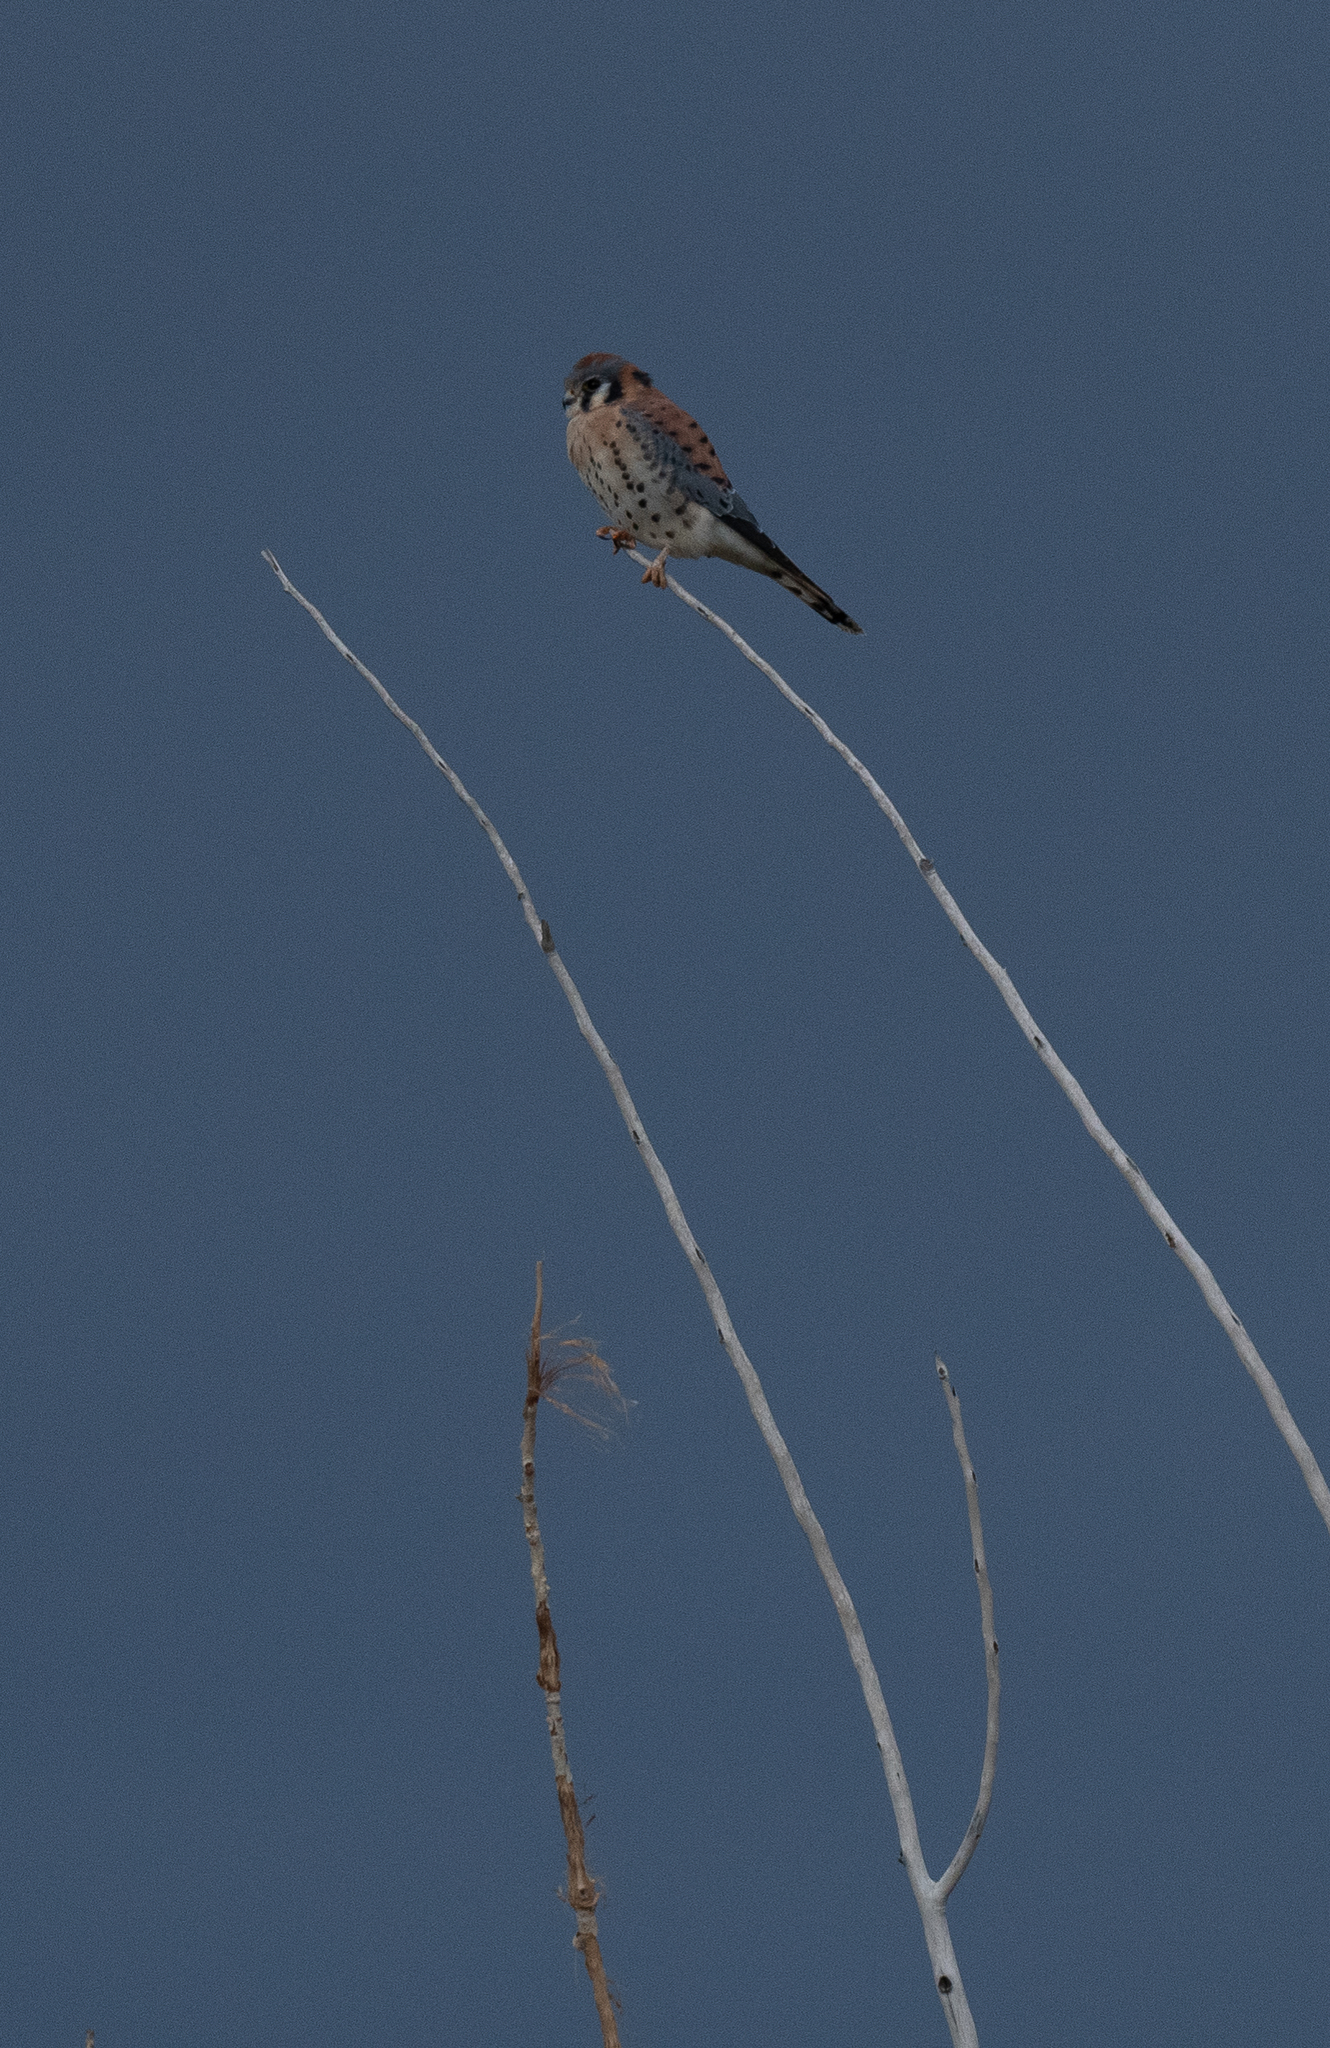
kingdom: Animalia
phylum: Chordata
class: Aves
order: Falconiformes
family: Falconidae
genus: Falco
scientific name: Falco sparverius
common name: American kestrel
